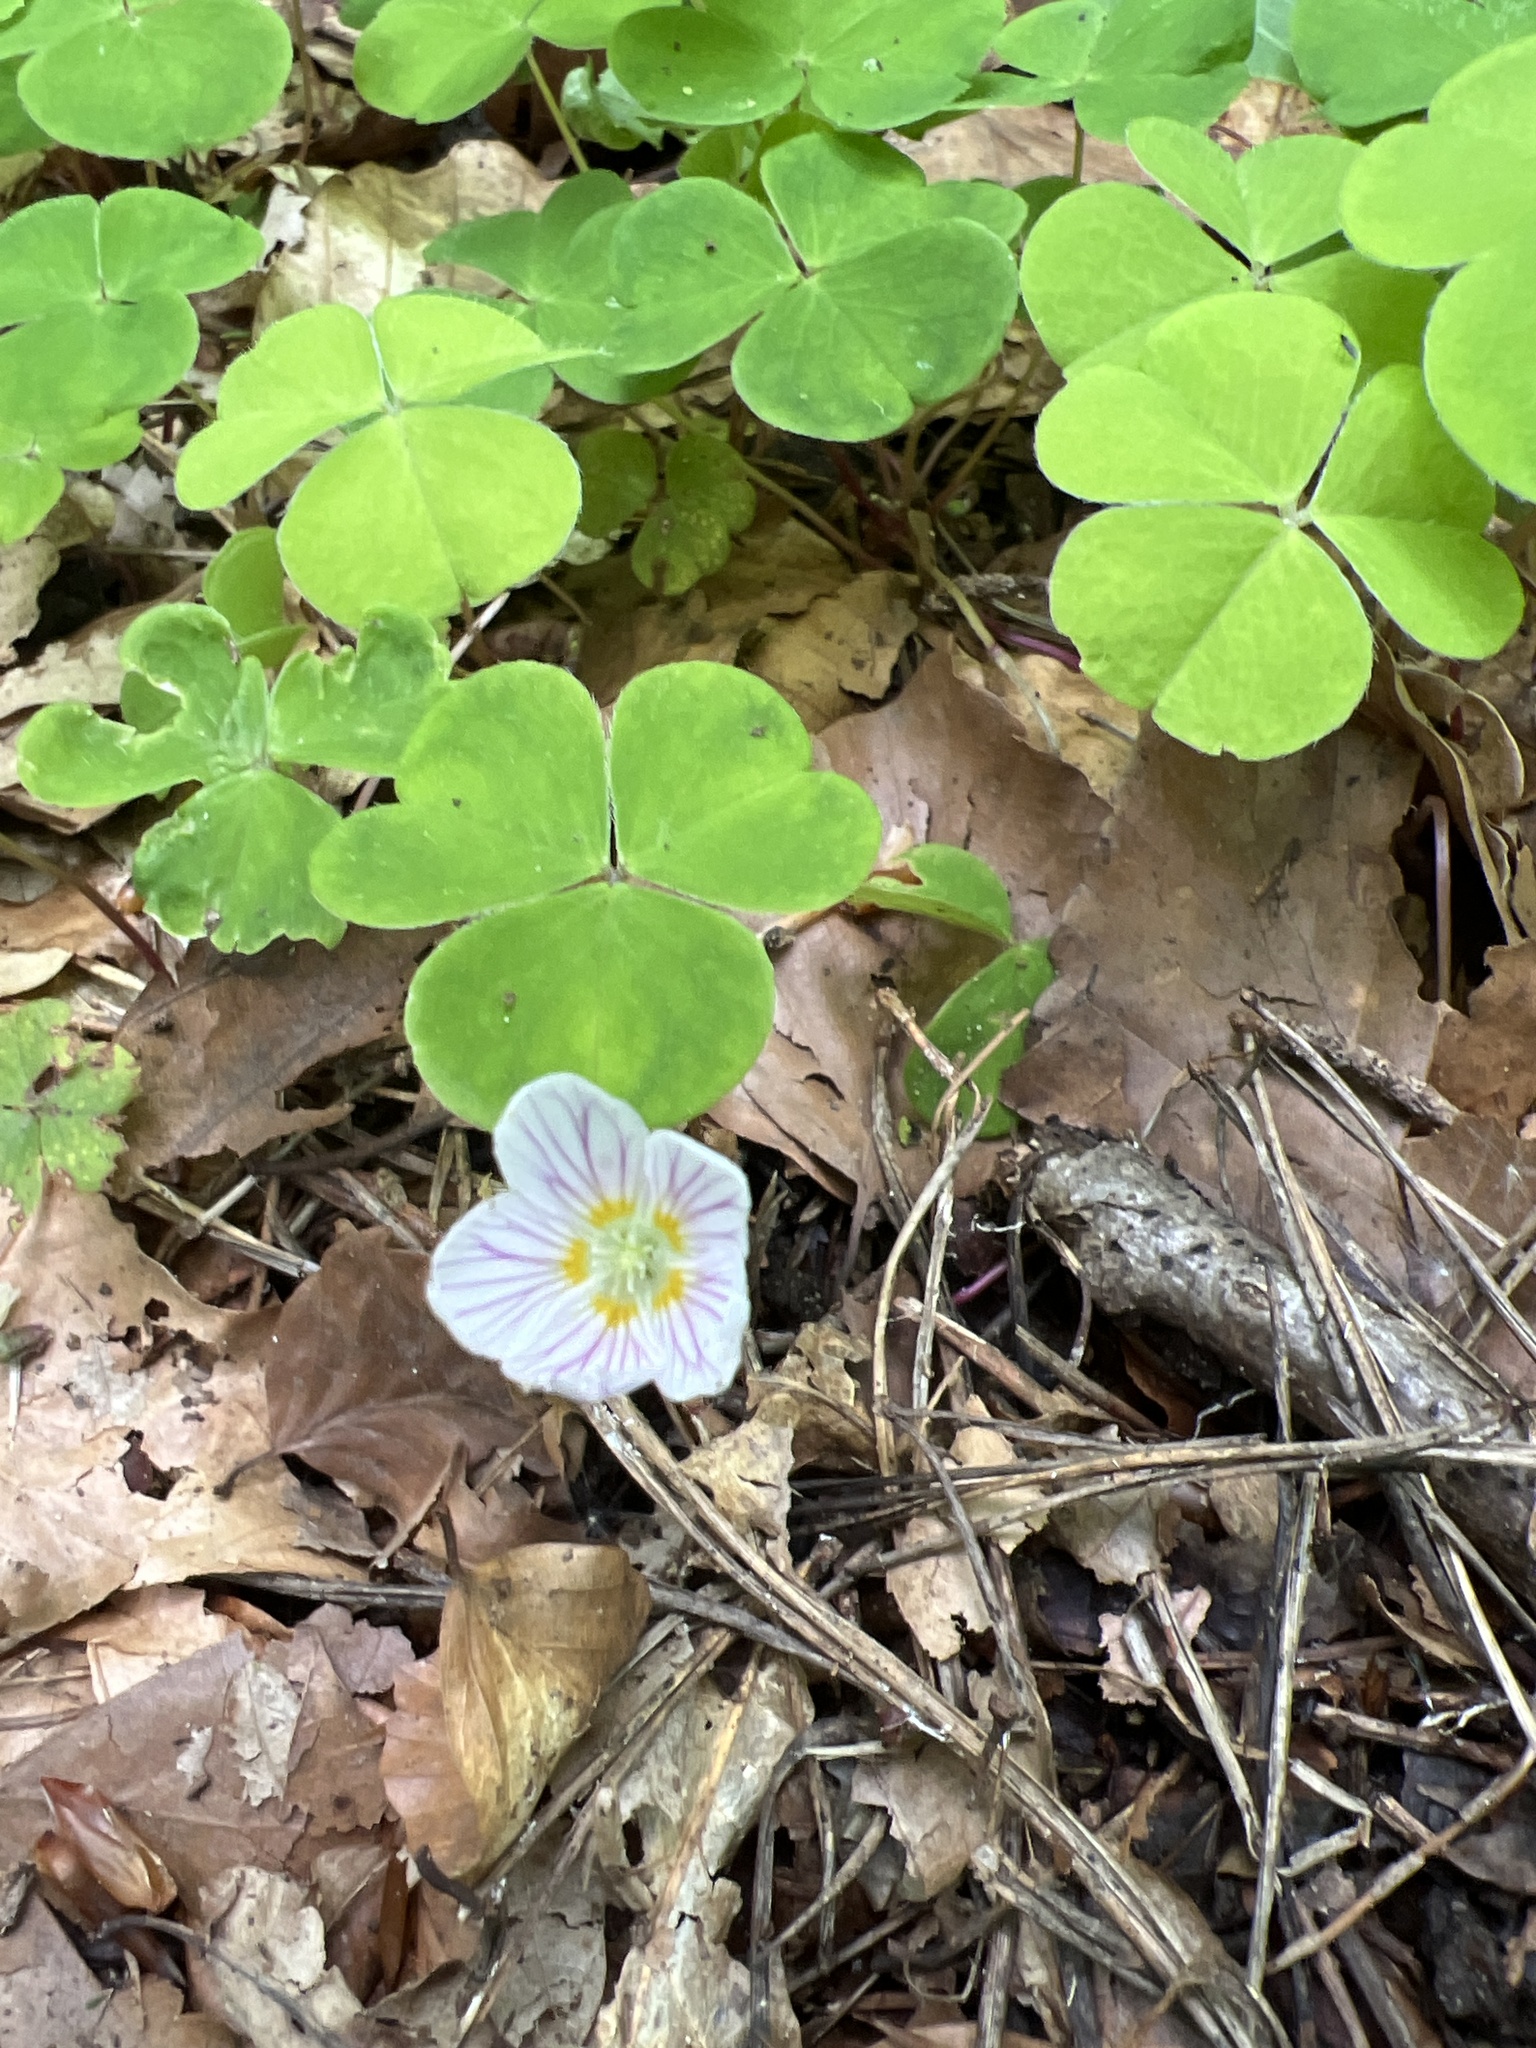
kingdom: Plantae
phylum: Tracheophyta
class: Magnoliopsida
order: Oxalidales
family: Oxalidaceae
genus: Oxalis
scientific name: Oxalis acetosella
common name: Wood-sorrel
